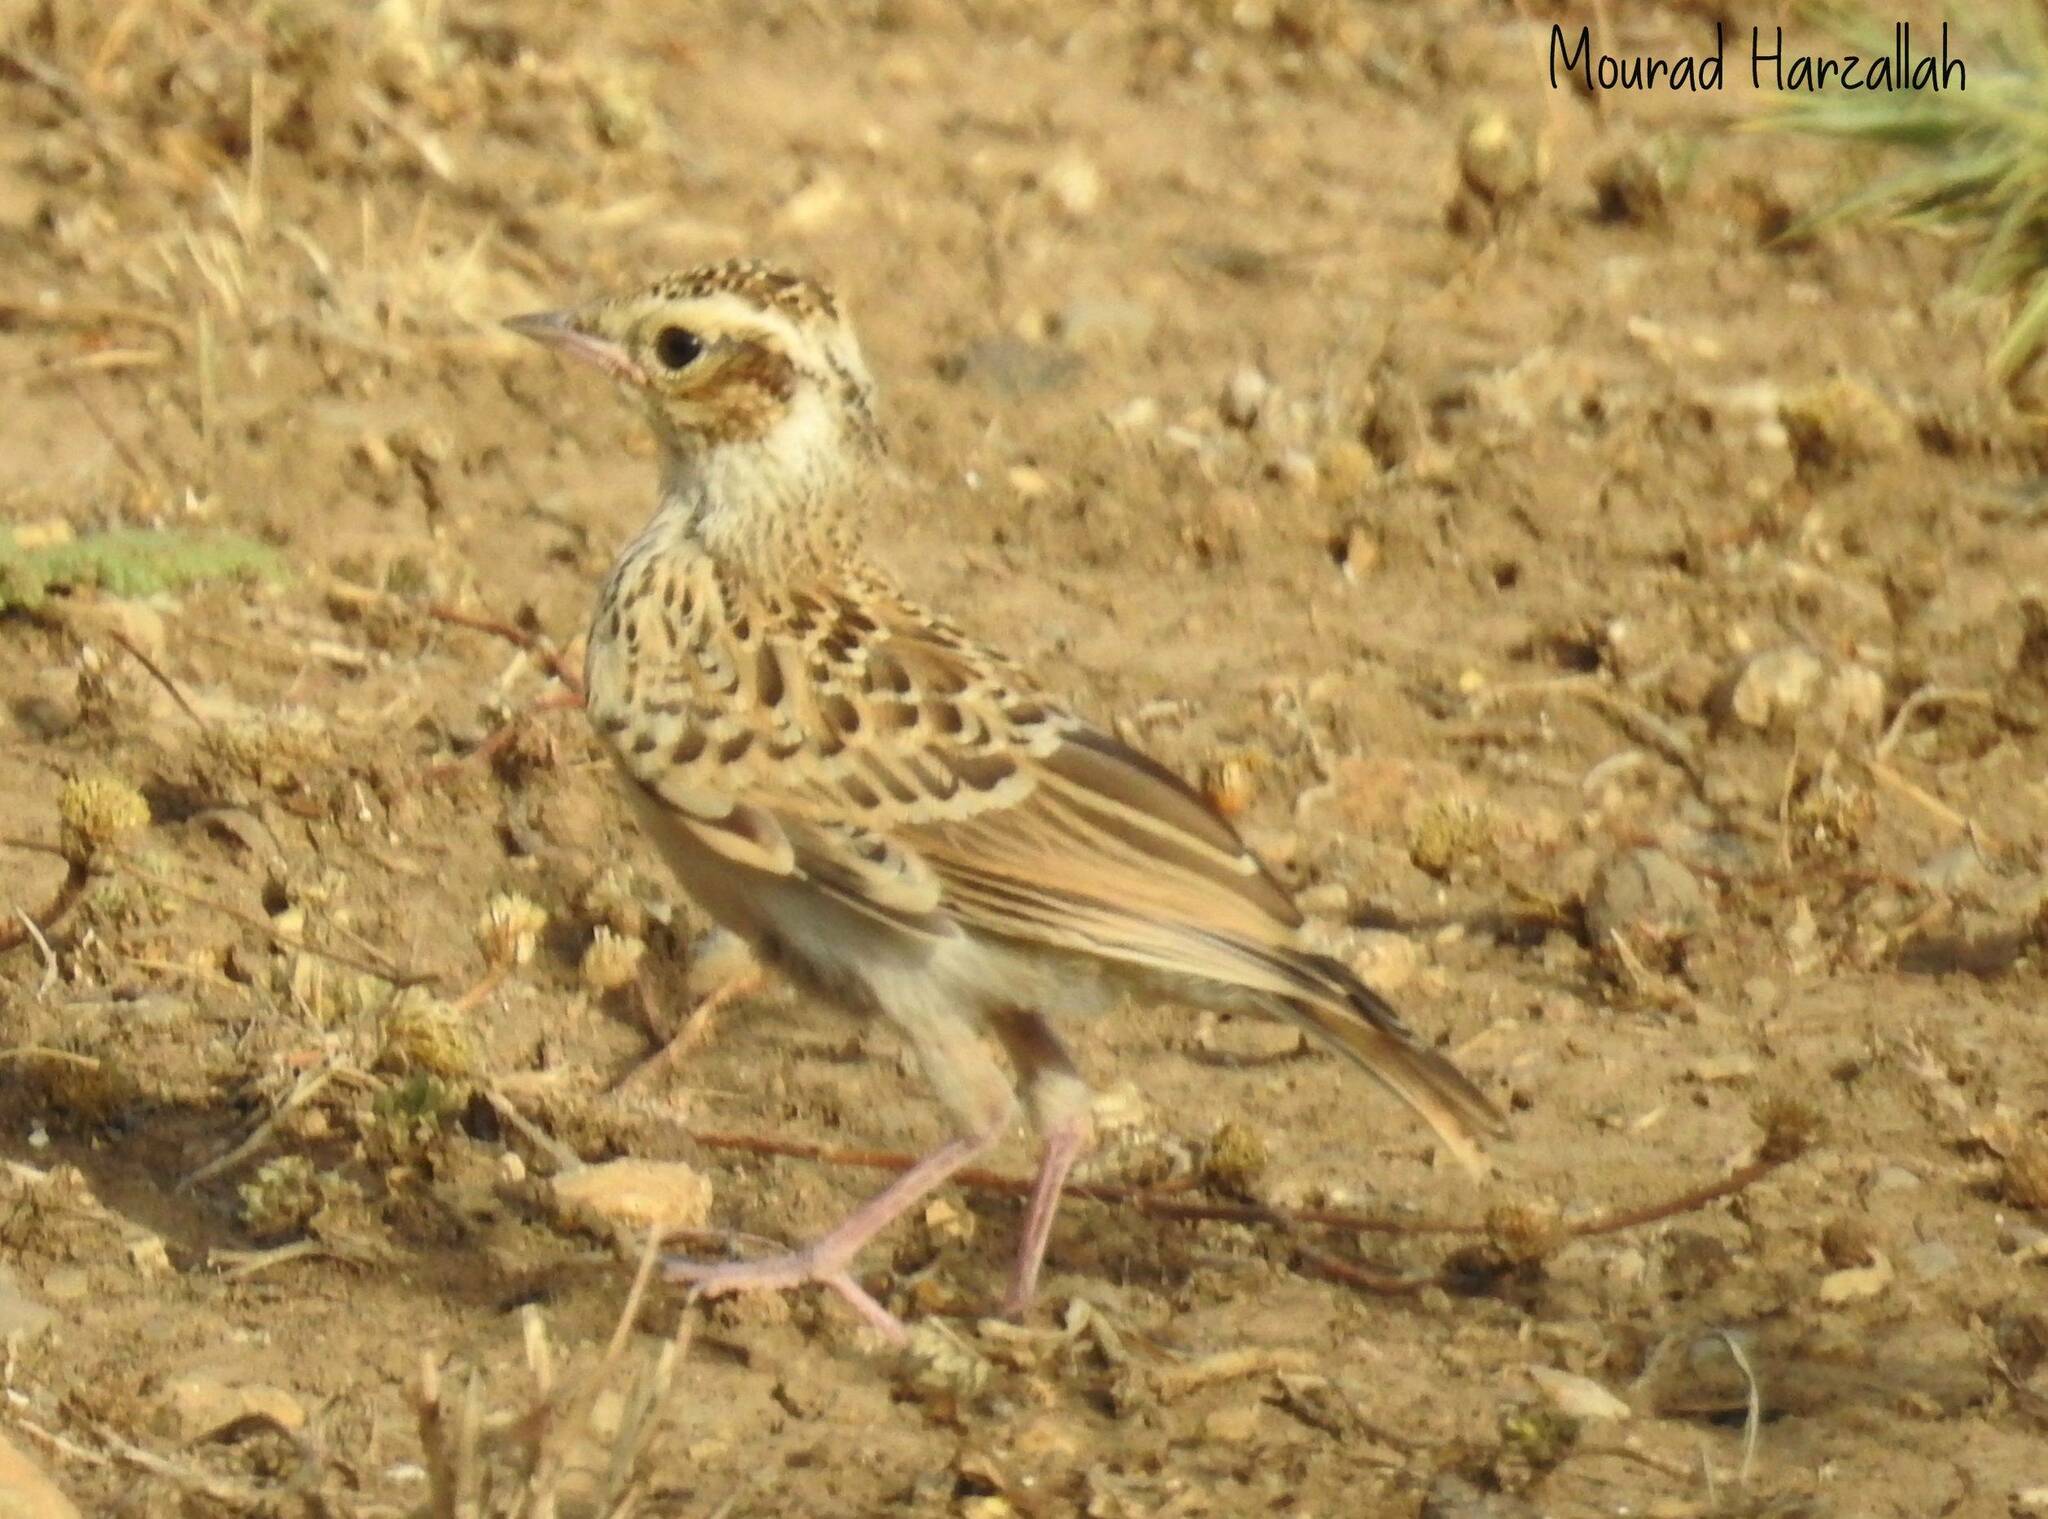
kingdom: Animalia
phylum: Chordata
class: Aves
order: Passeriformes
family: Alaudidae
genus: Lullula
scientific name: Lullula arborea
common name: Woodlark
